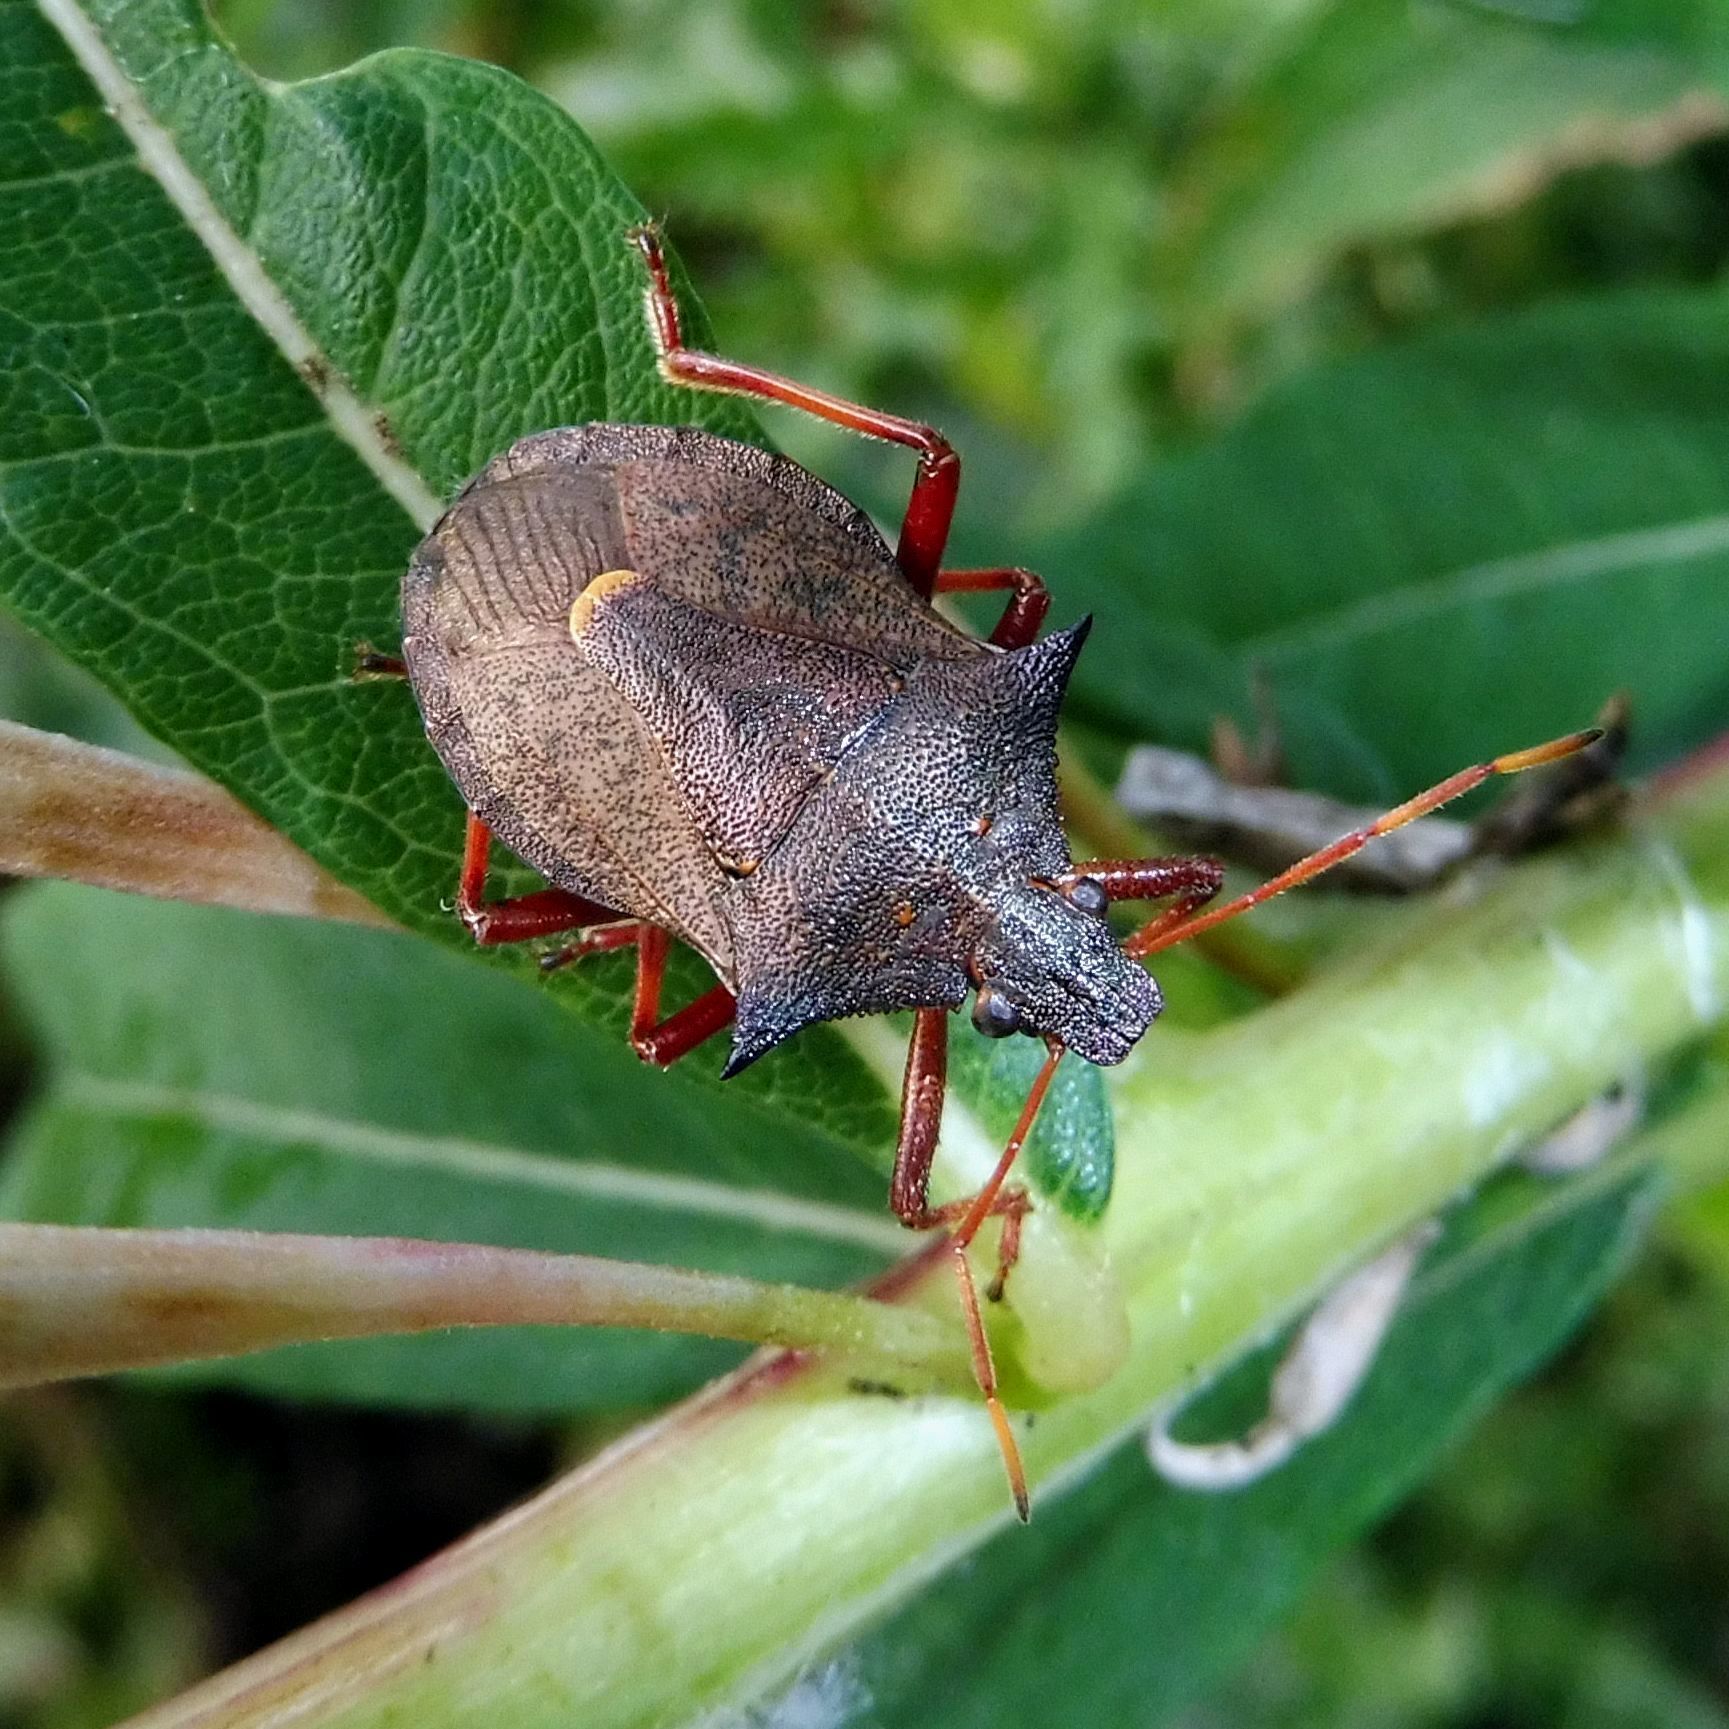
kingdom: Animalia
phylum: Arthropoda
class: Insecta
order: Hemiptera
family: Pentatomidae
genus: Picromerus
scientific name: Picromerus bidens
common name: Spiked shieldbug
